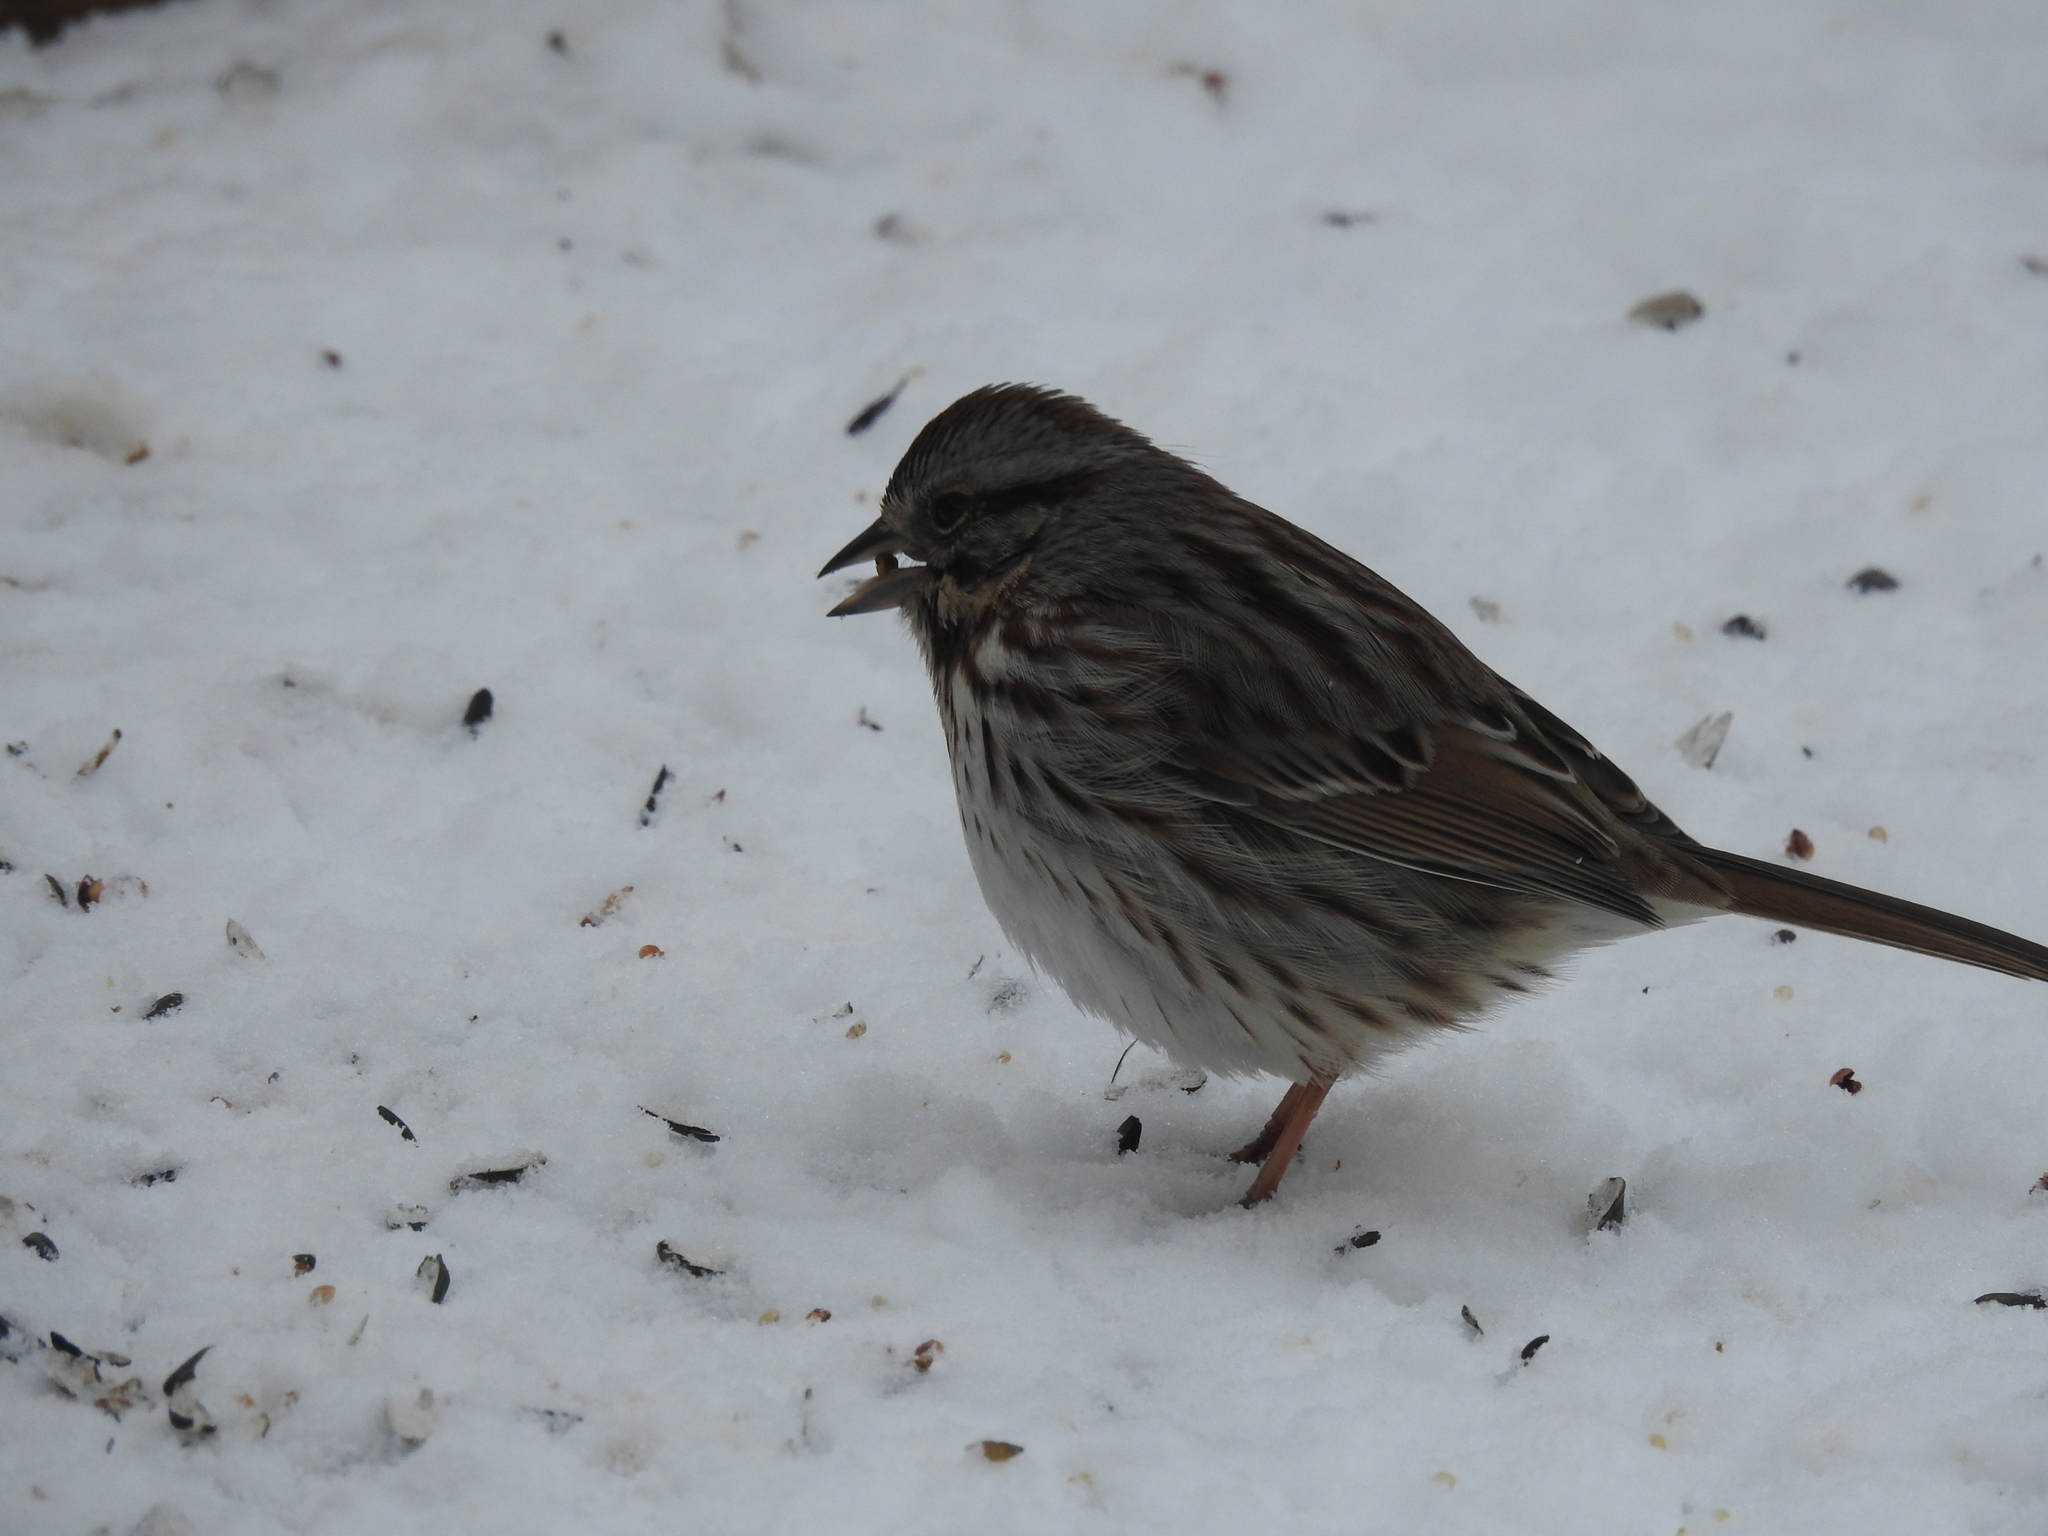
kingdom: Animalia
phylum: Chordata
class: Aves
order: Passeriformes
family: Passerellidae
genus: Melospiza
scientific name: Melospiza melodia
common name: Song sparrow
